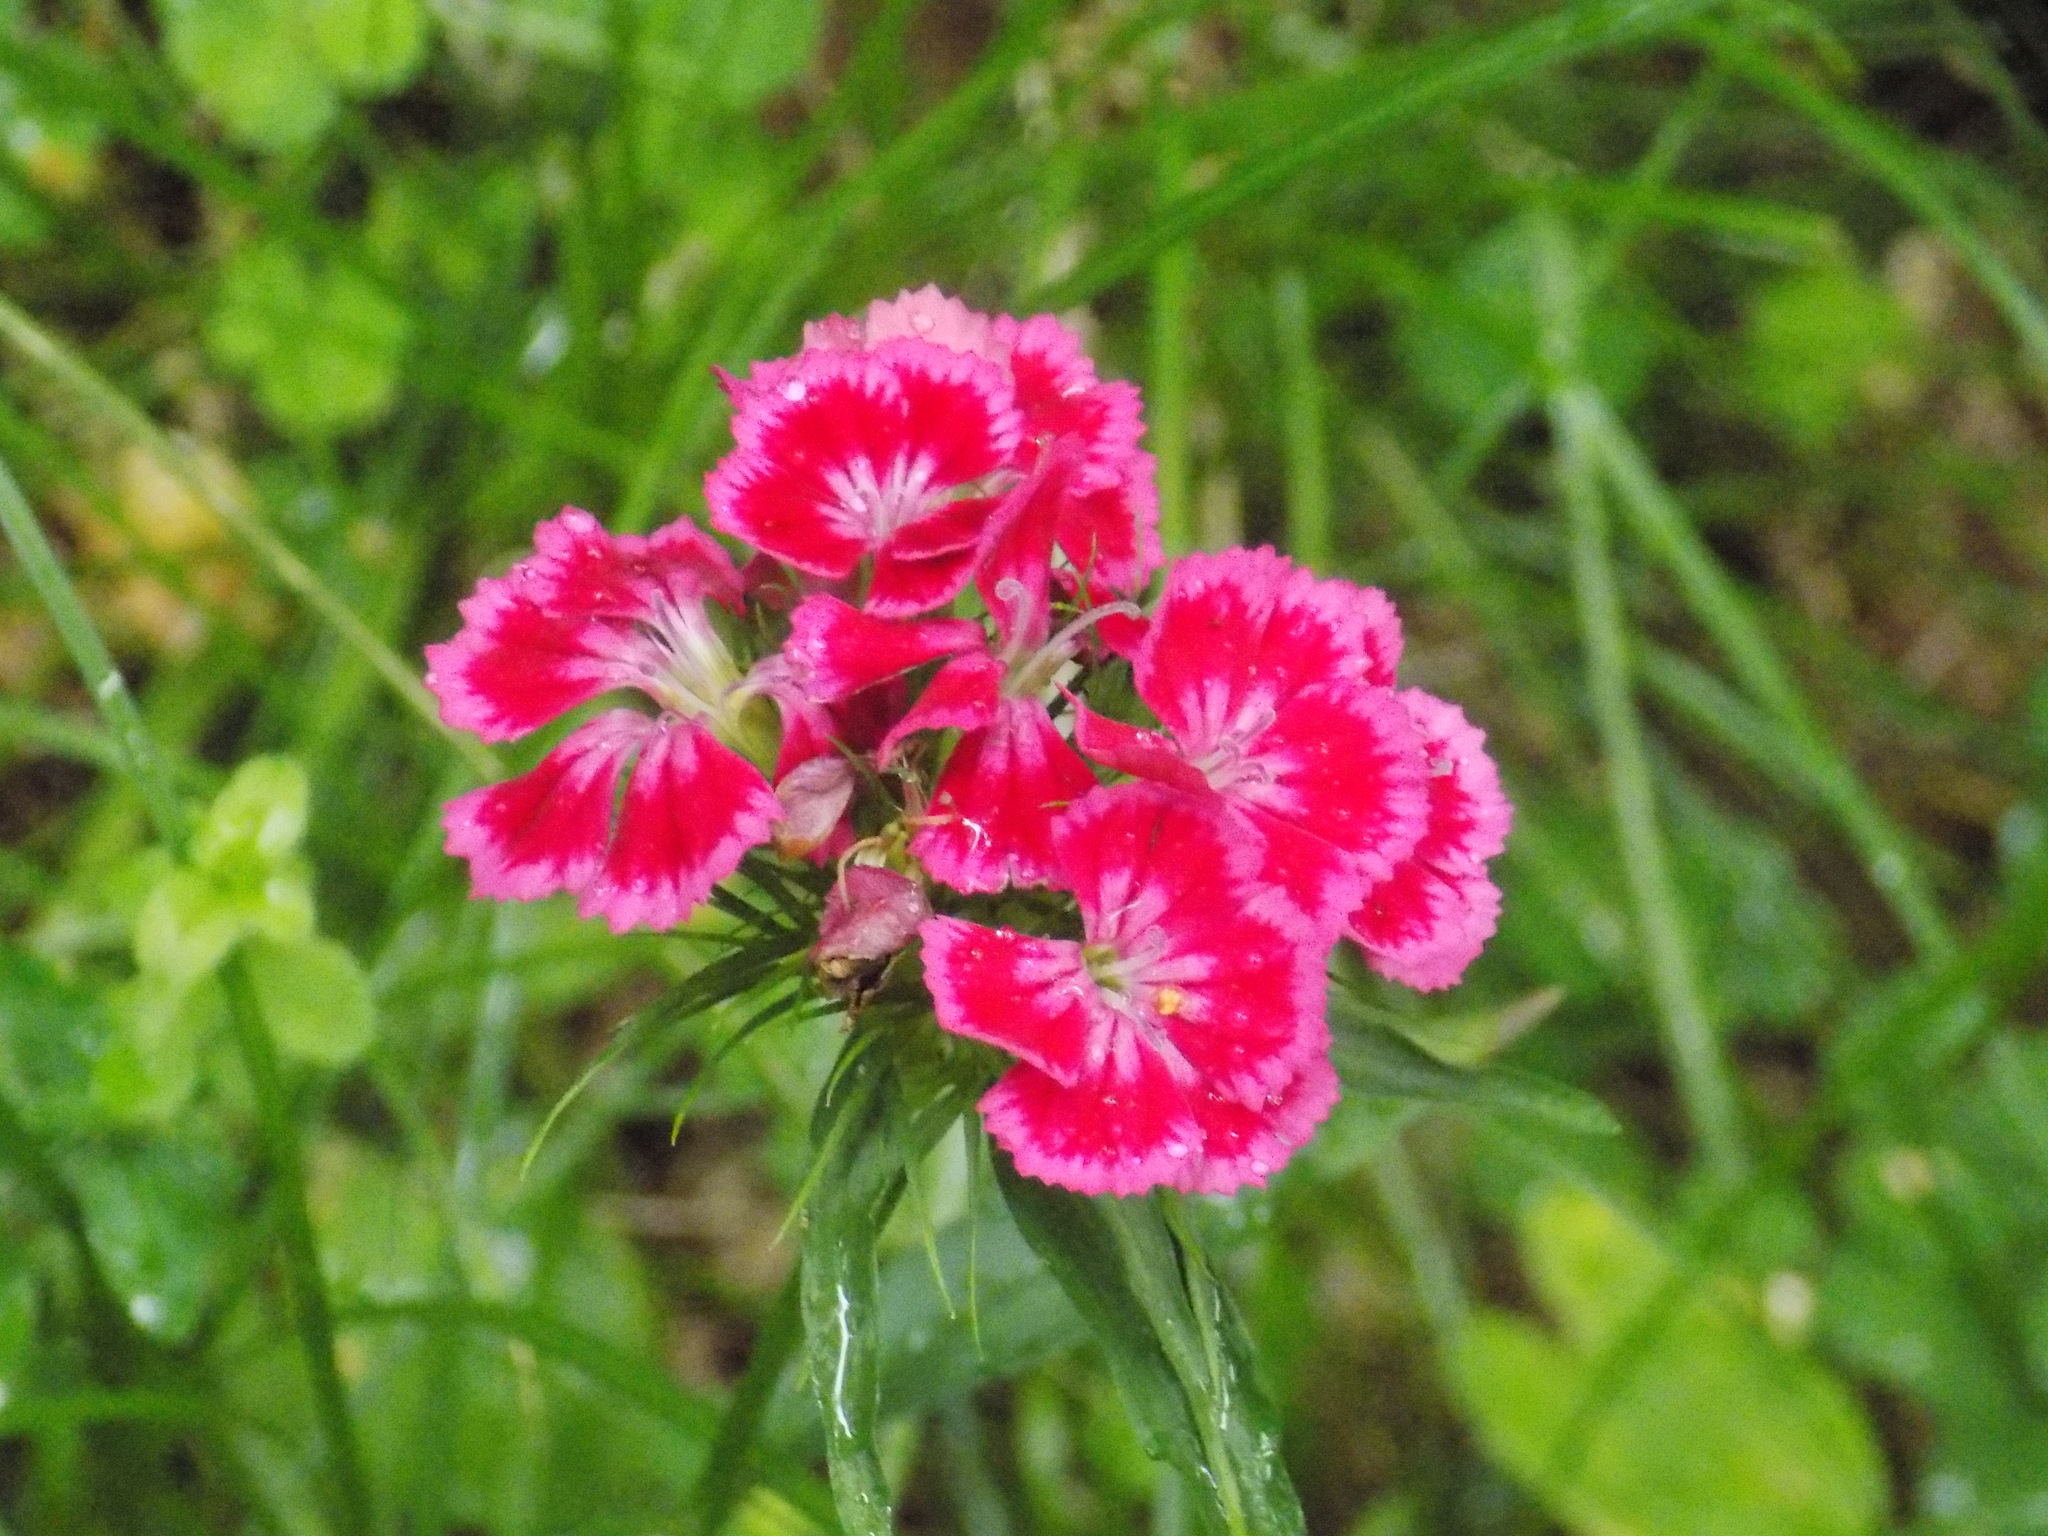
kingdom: Plantae
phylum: Tracheophyta
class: Magnoliopsida
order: Caryophyllales
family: Caryophyllaceae
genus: Dianthus
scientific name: Dianthus barbatus
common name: Sweet-william
